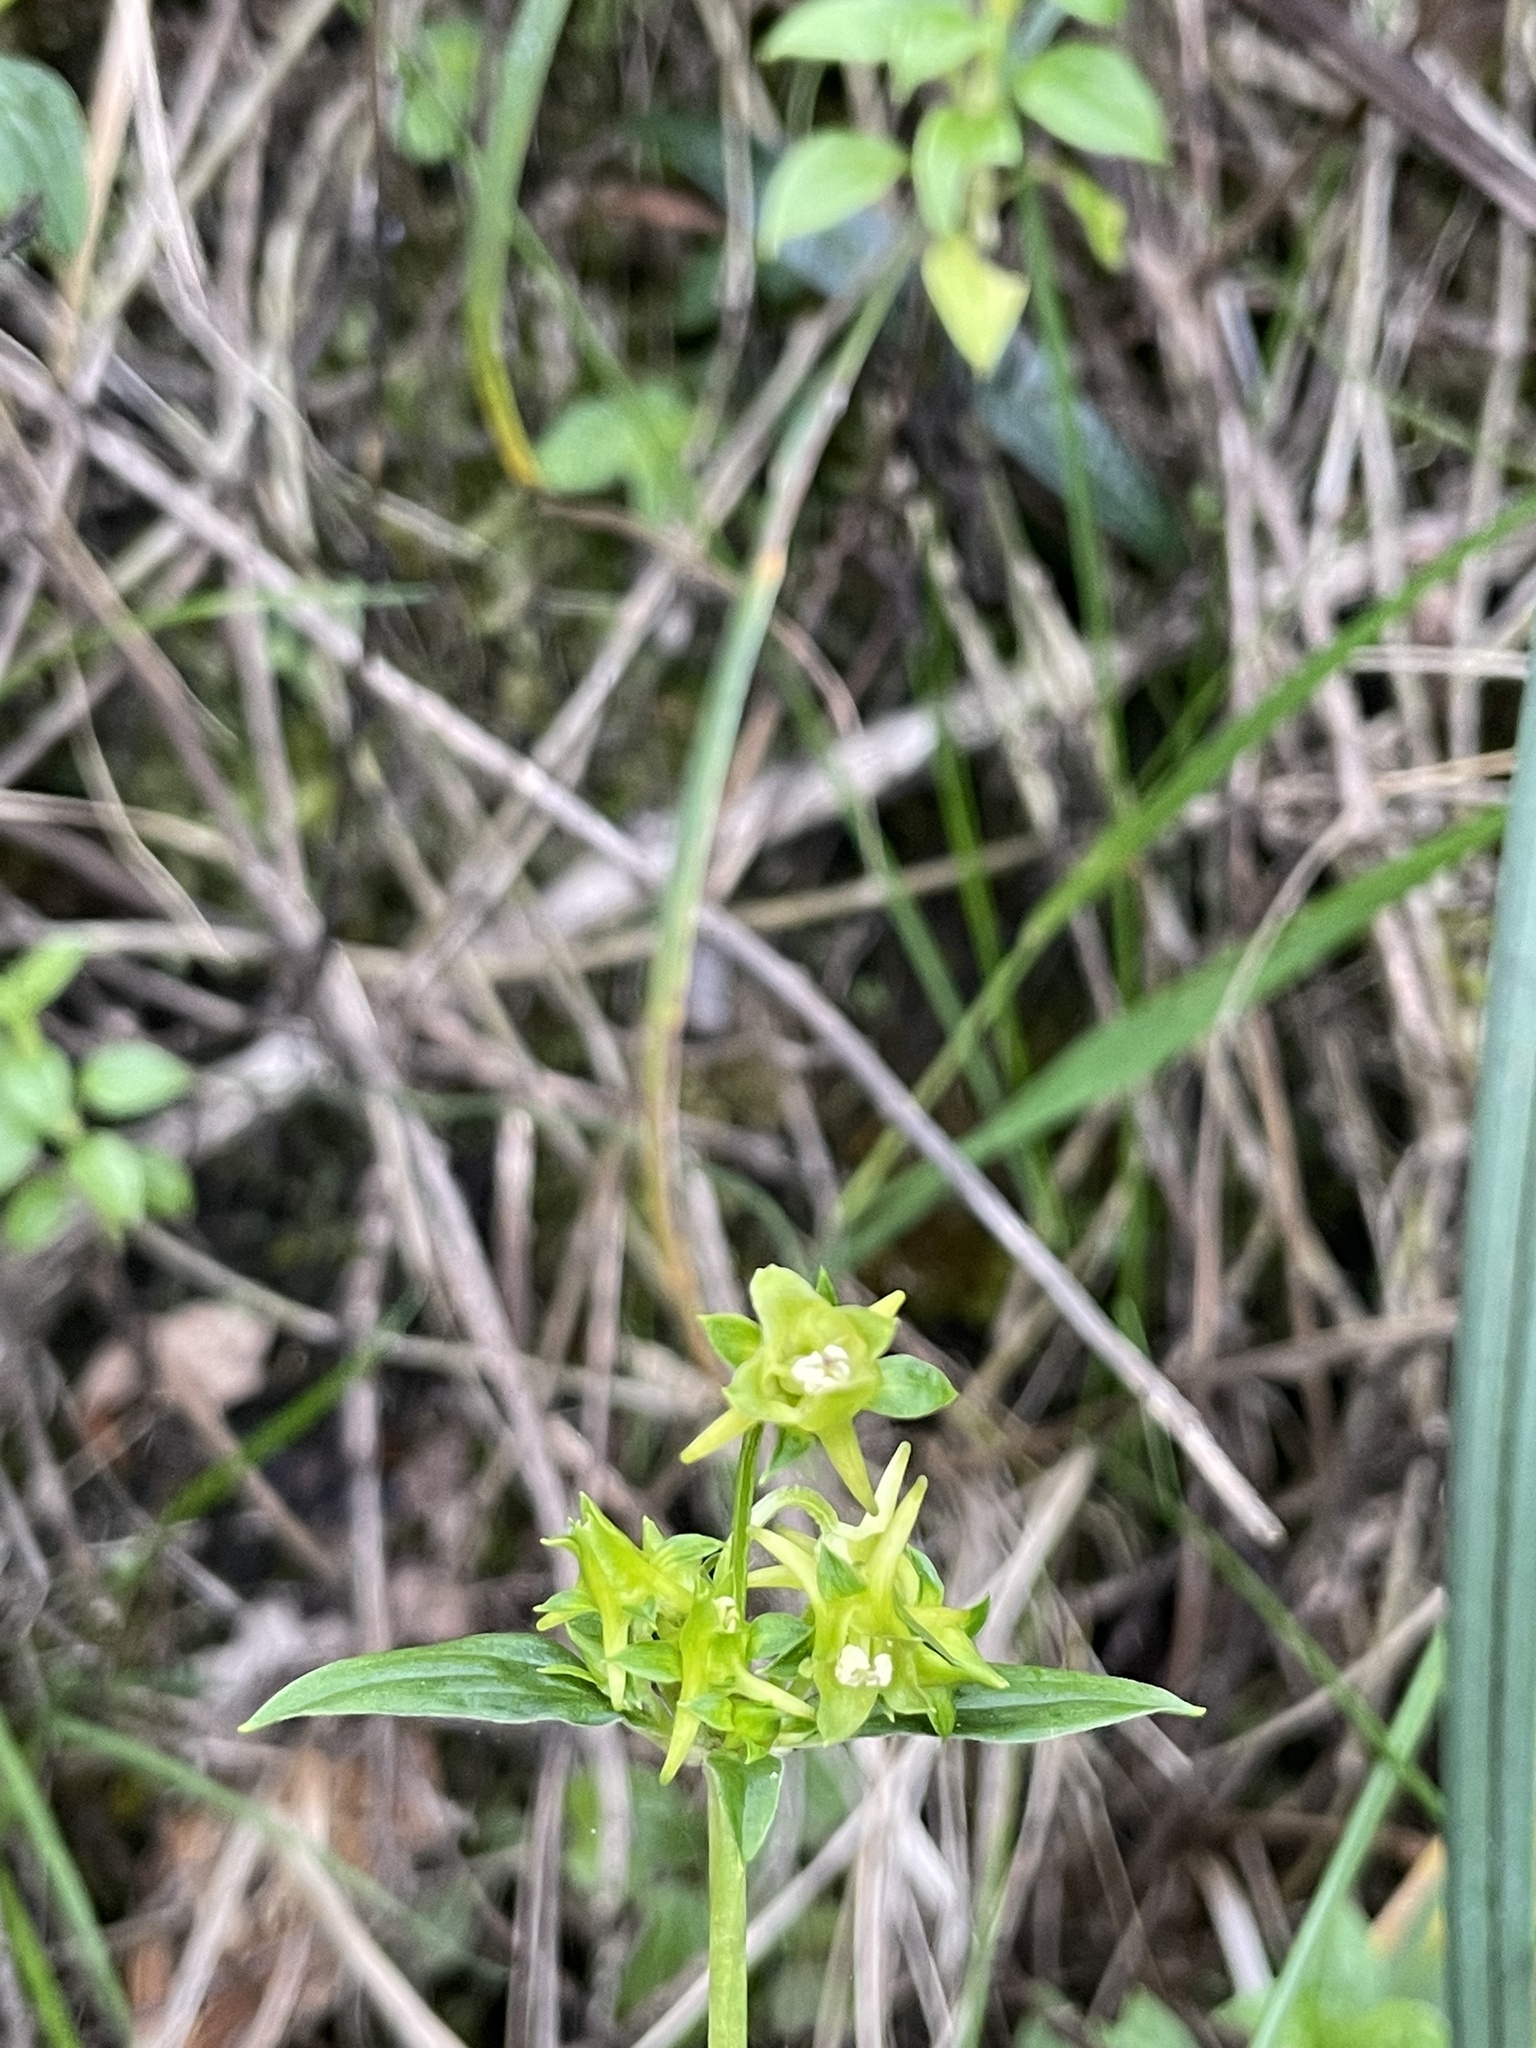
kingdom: Plantae
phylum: Tracheophyta
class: Magnoliopsida
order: Gentianales
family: Gentianaceae
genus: Halenia
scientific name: Halenia weddelliana
